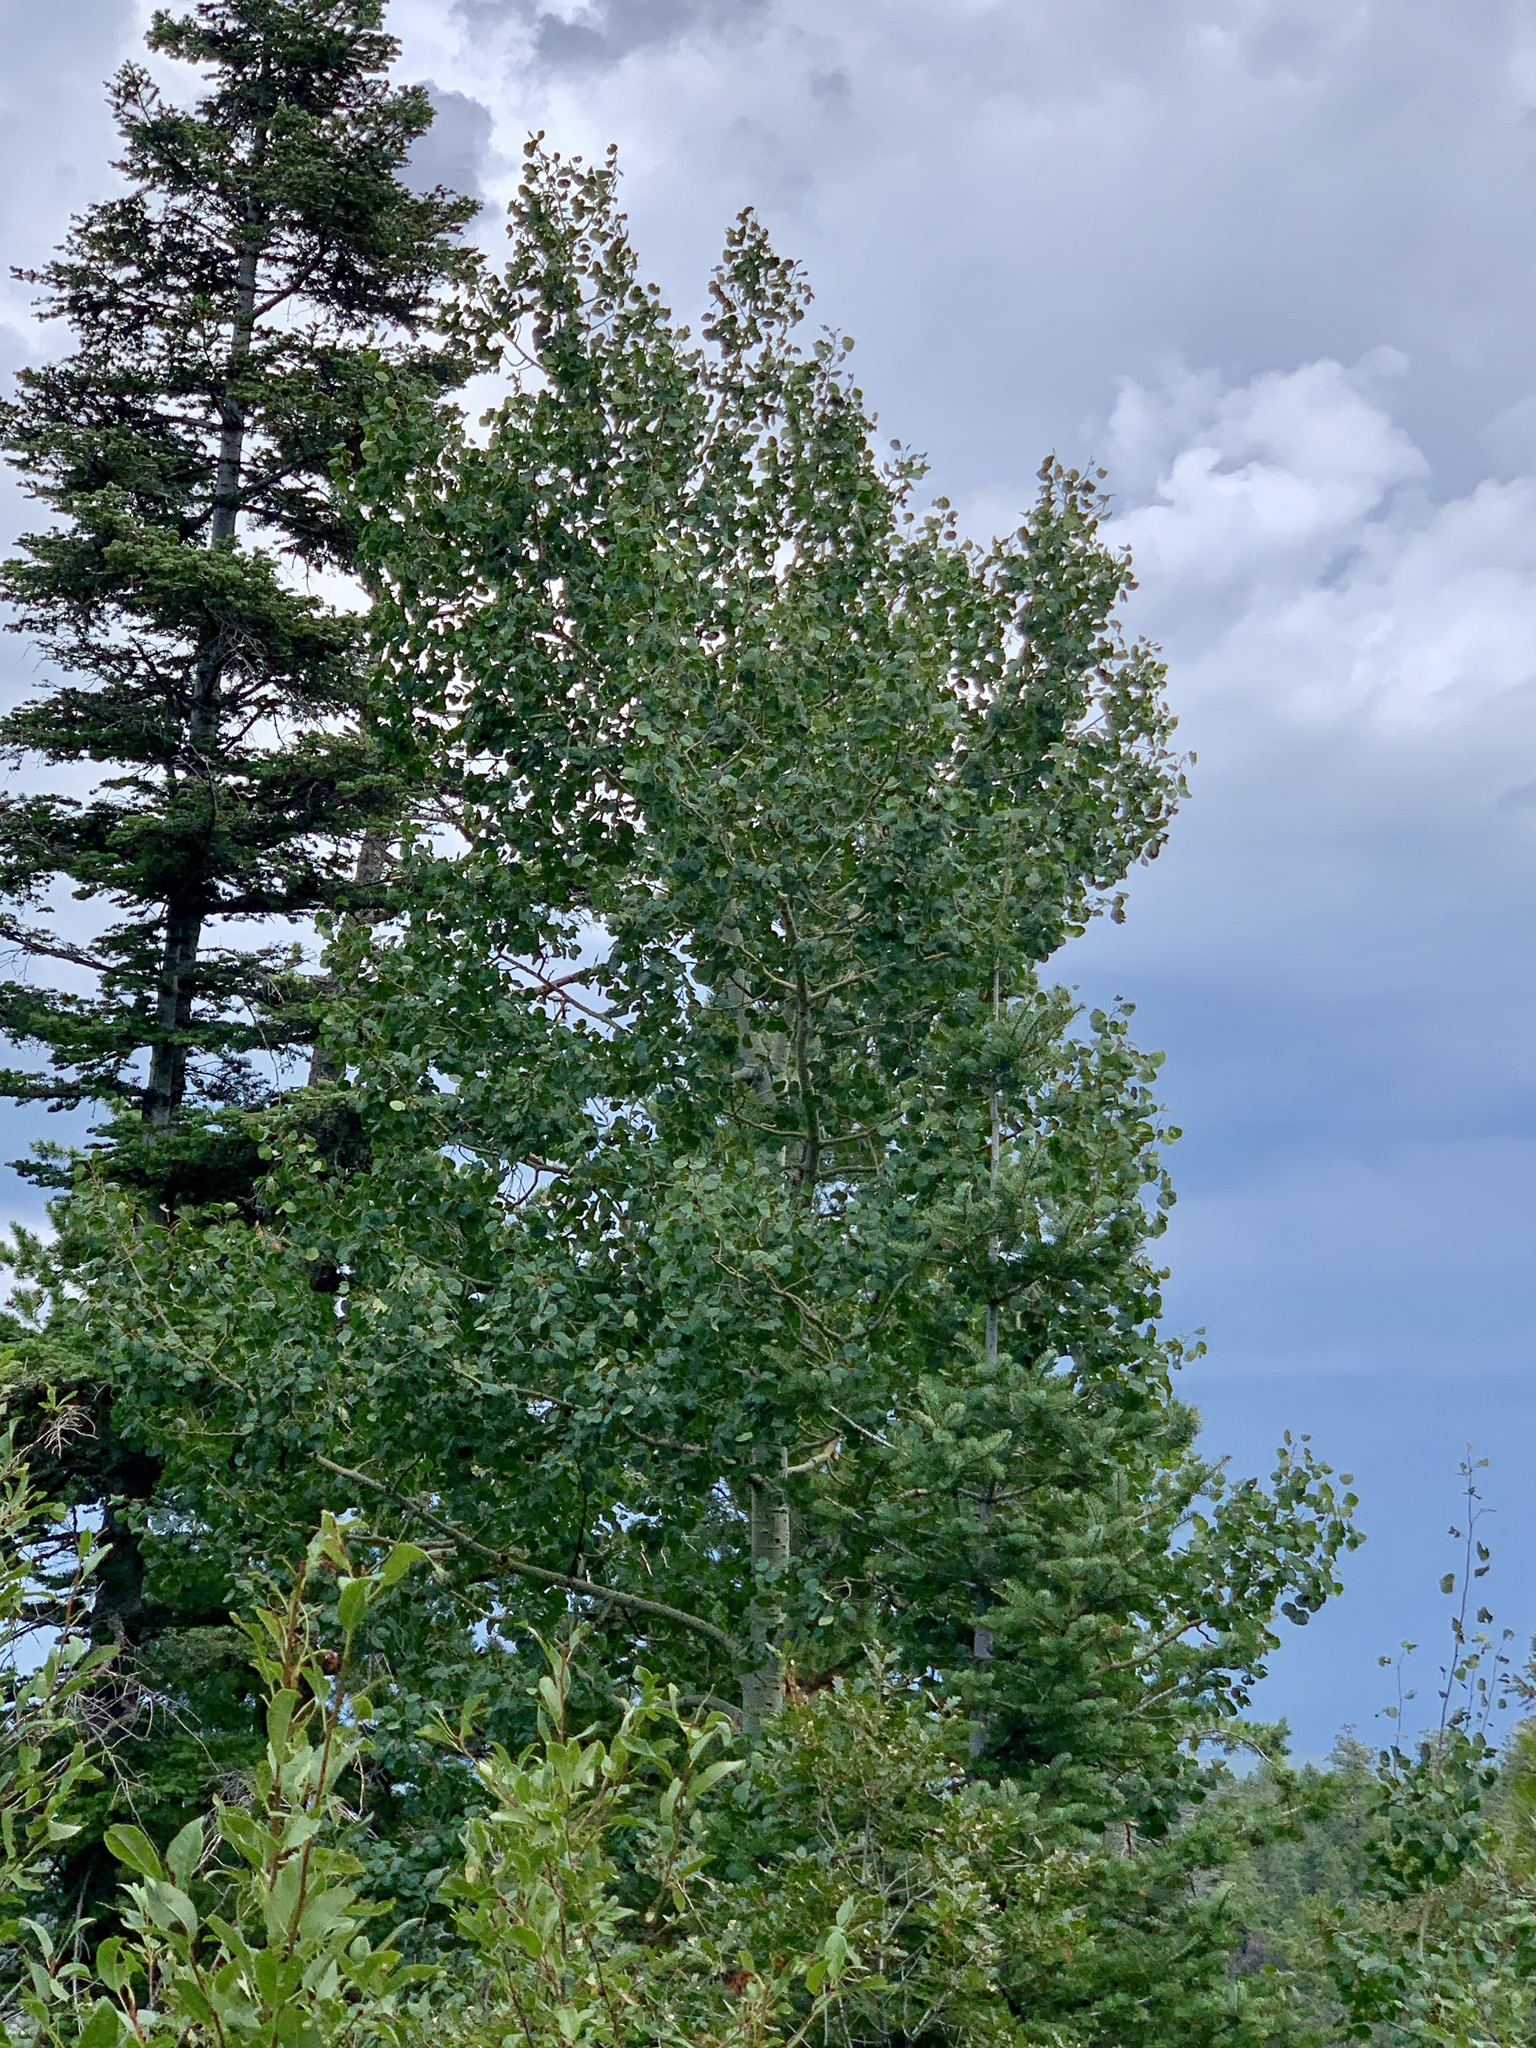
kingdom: Plantae
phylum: Tracheophyta
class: Magnoliopsida
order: Malpighiales
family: Salicaceae
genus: Populus
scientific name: Populus tremuloides
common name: Quaking aspen
